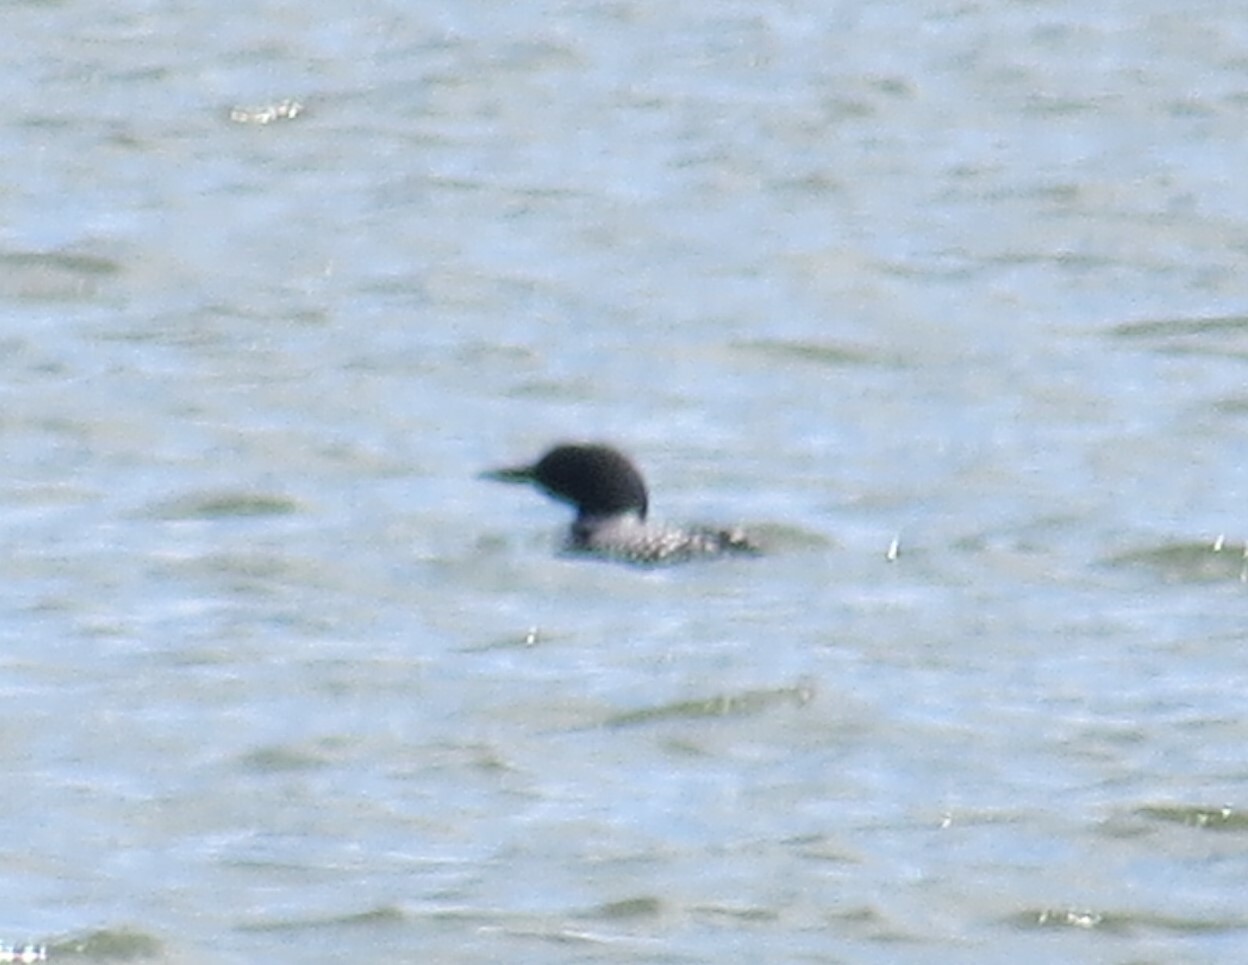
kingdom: Animalia
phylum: Chordata
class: Aves
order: Gaviiformes
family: Gaviidae
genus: Gavia
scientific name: Gavia immer
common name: Common loon
